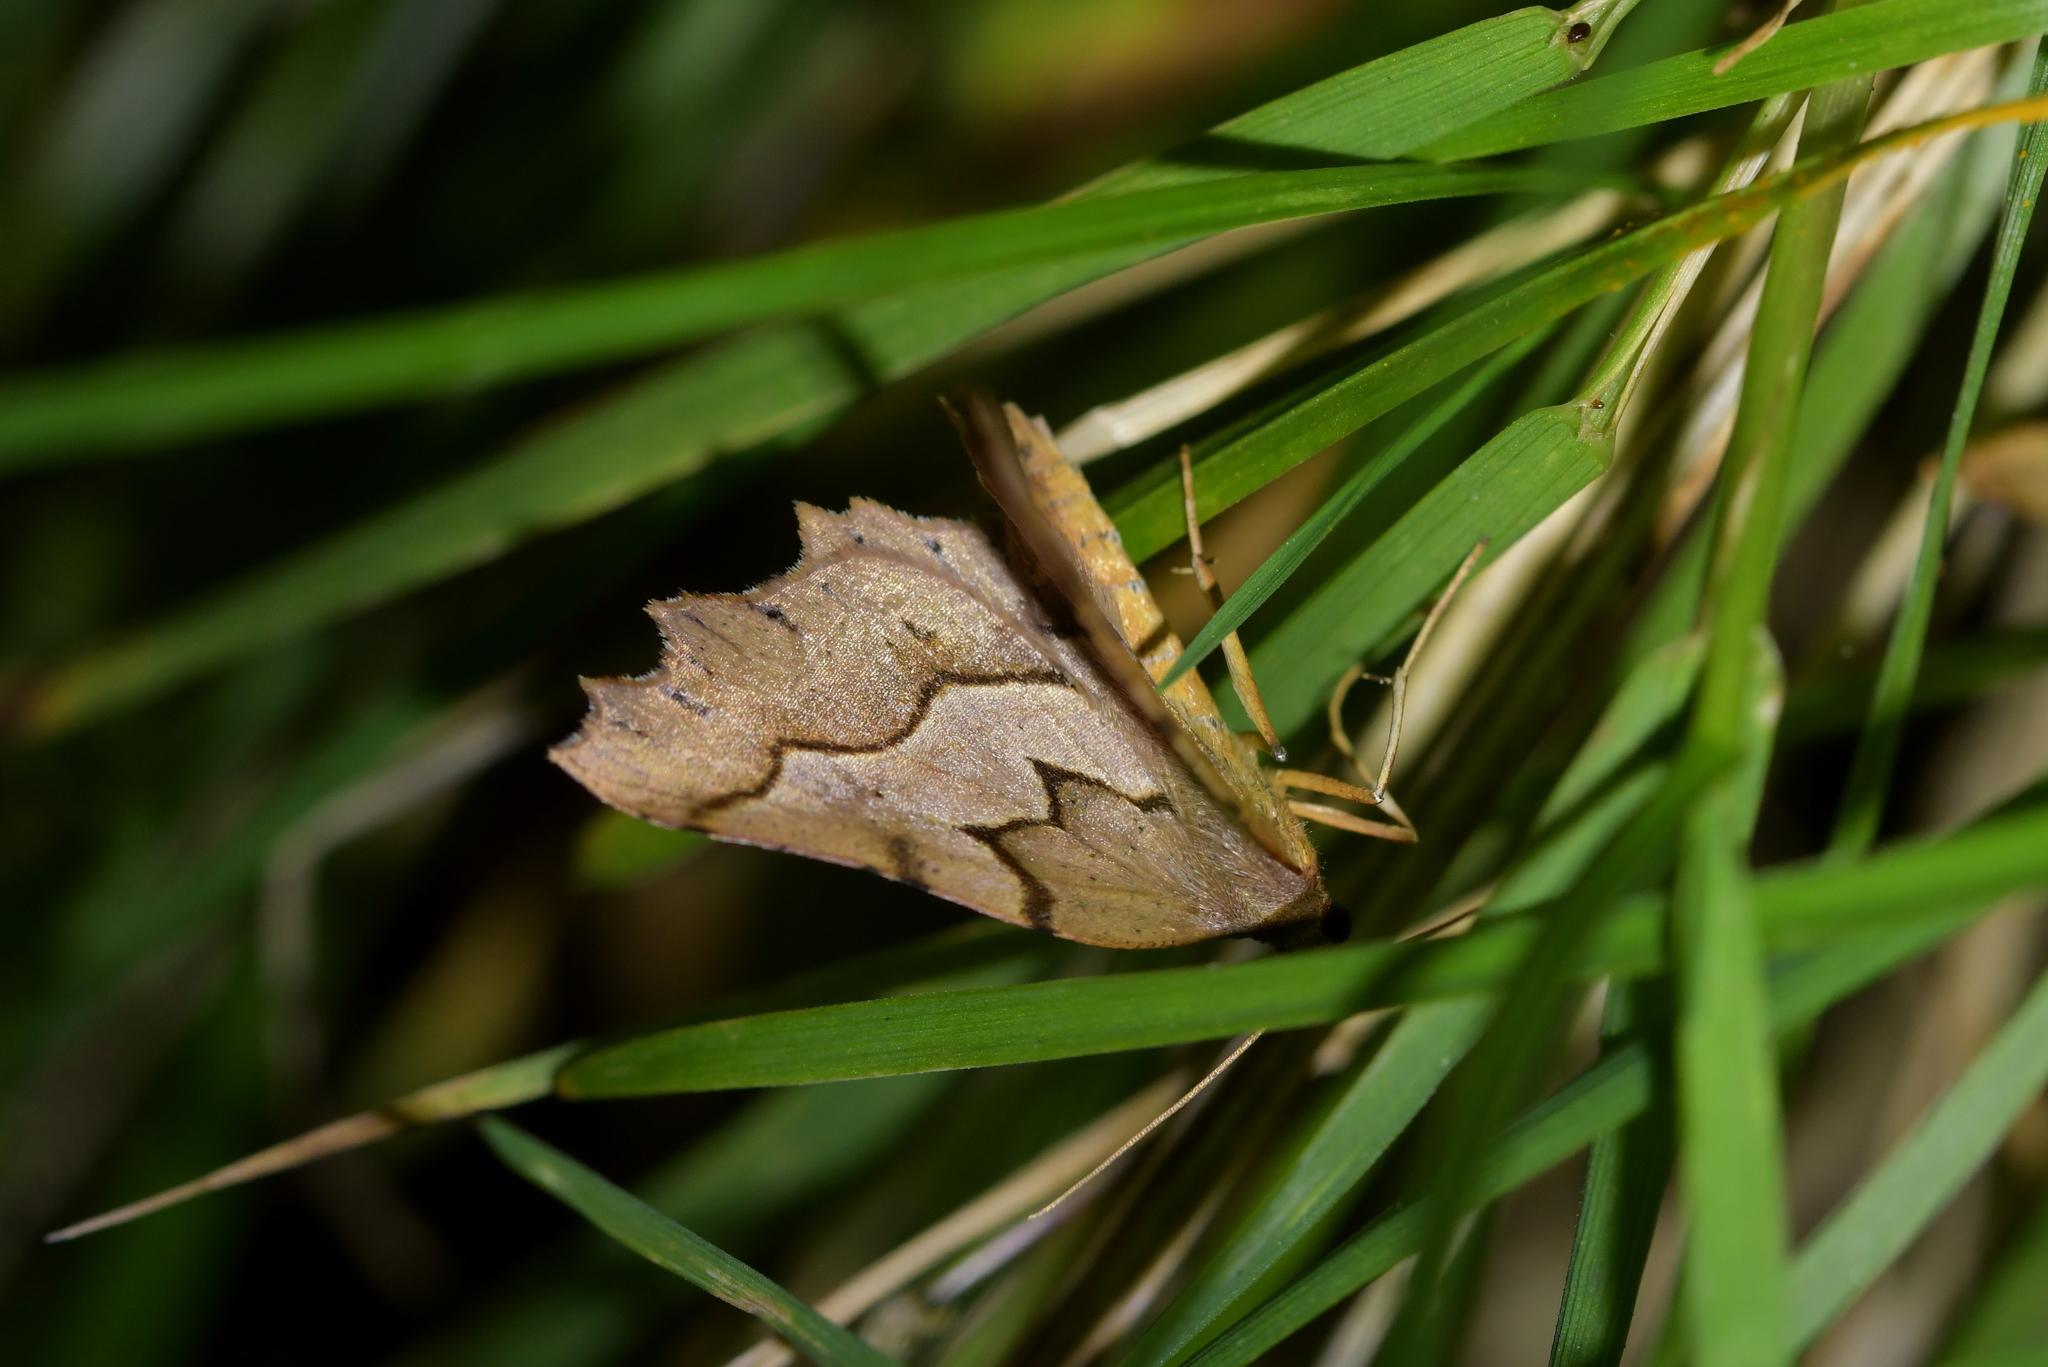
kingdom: Animalia
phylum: Arthropoda
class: Insecta
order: Lepidoptera
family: Geometridae
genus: Ischalis
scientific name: Ischalis fortinata
